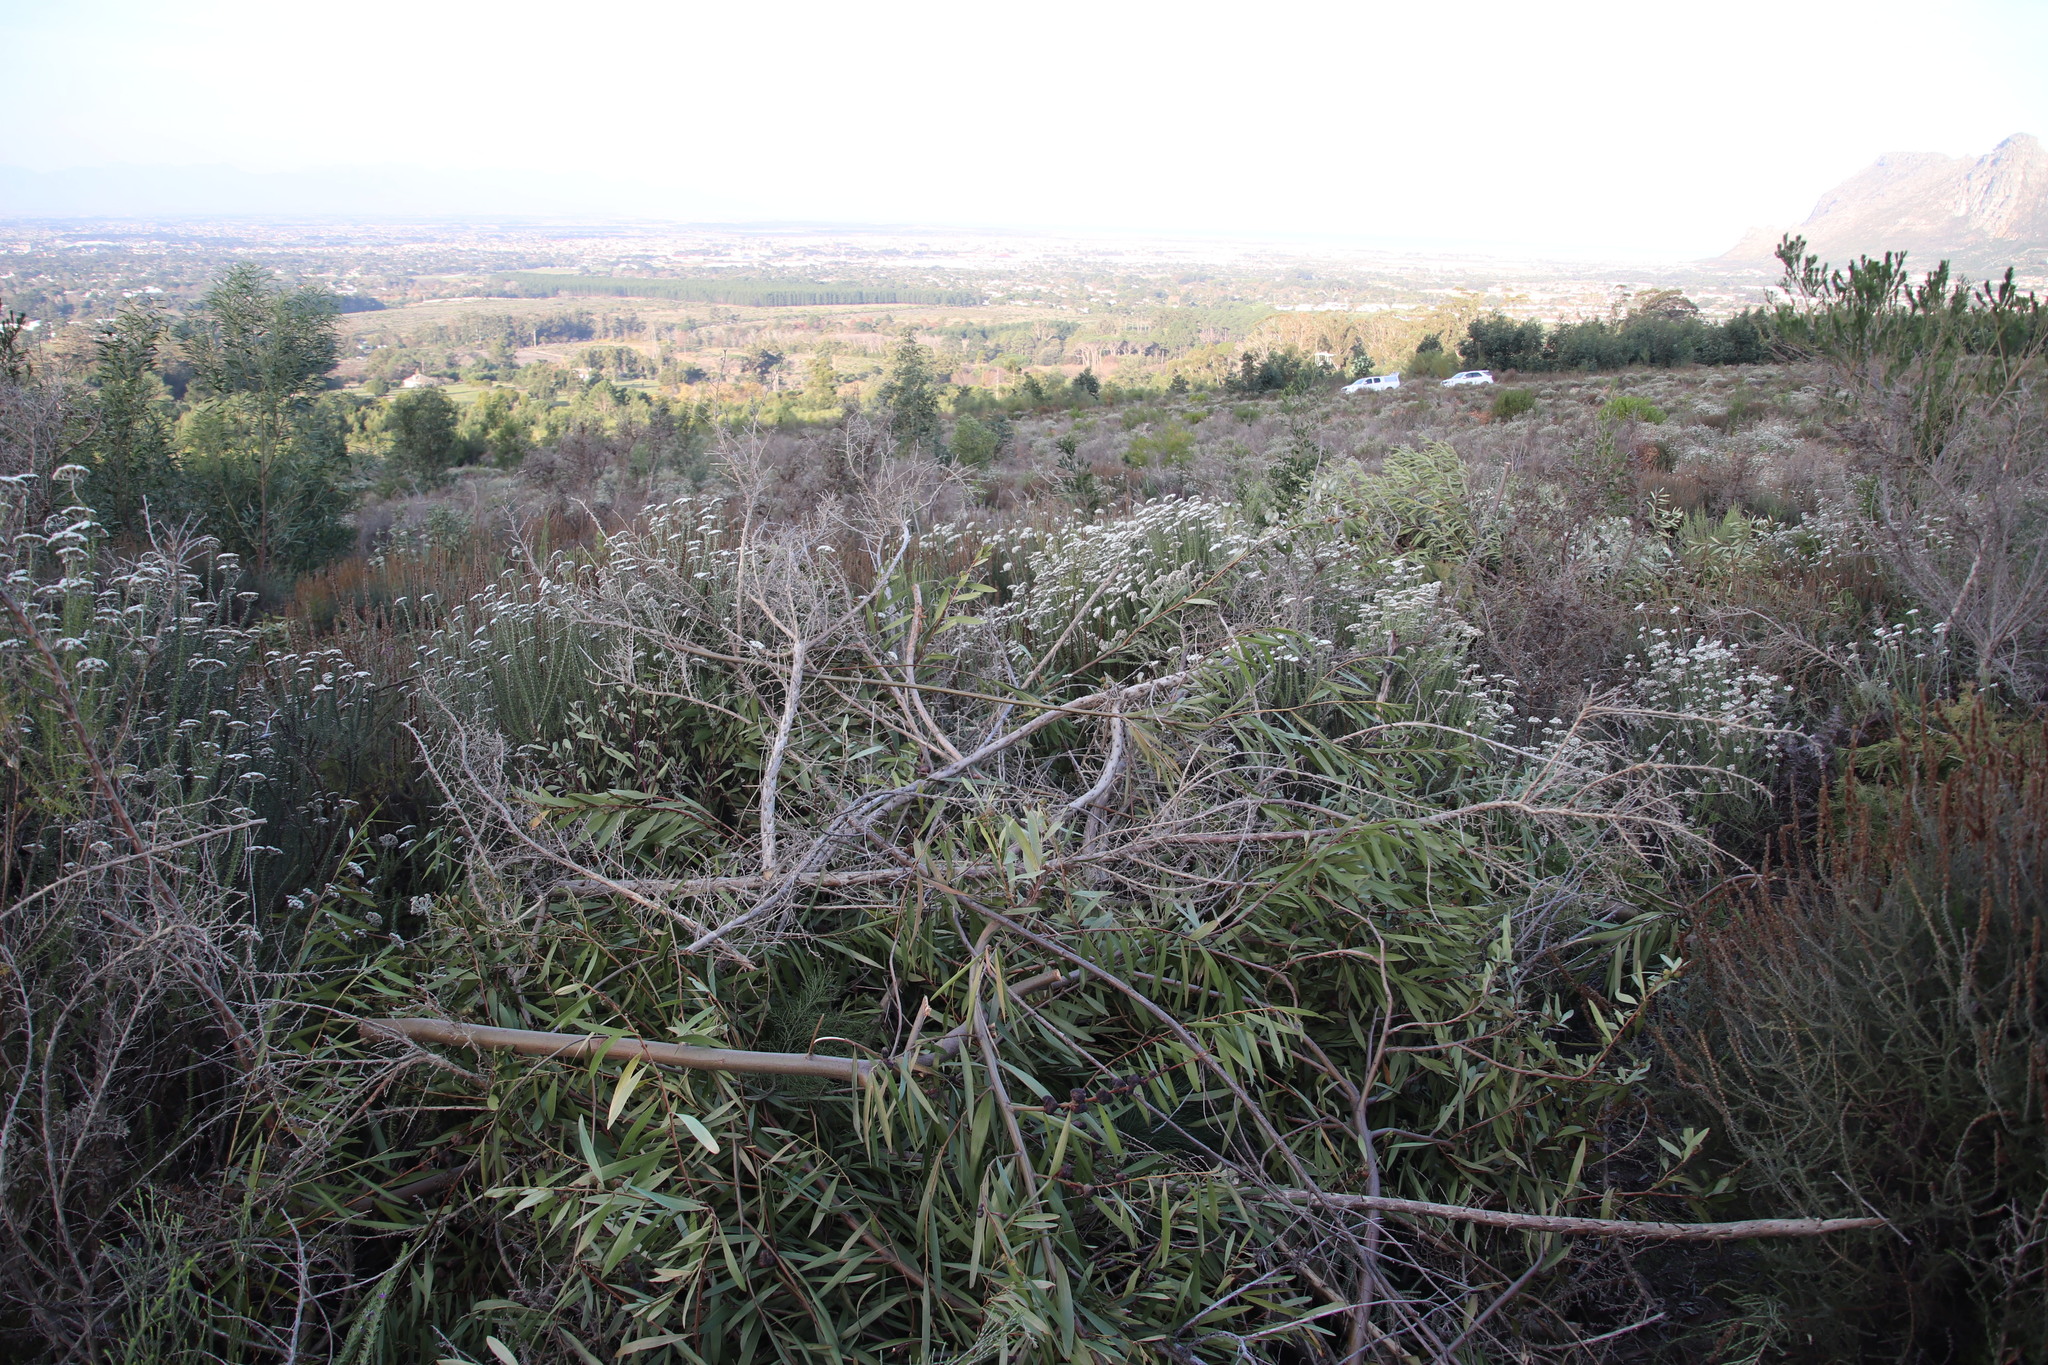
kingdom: Plantae
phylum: Tracheophyta
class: Magnoliopsida
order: Fabales
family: Fabaceae
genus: Acacia
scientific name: Acacia longifolia
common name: Sydney golden wattle
